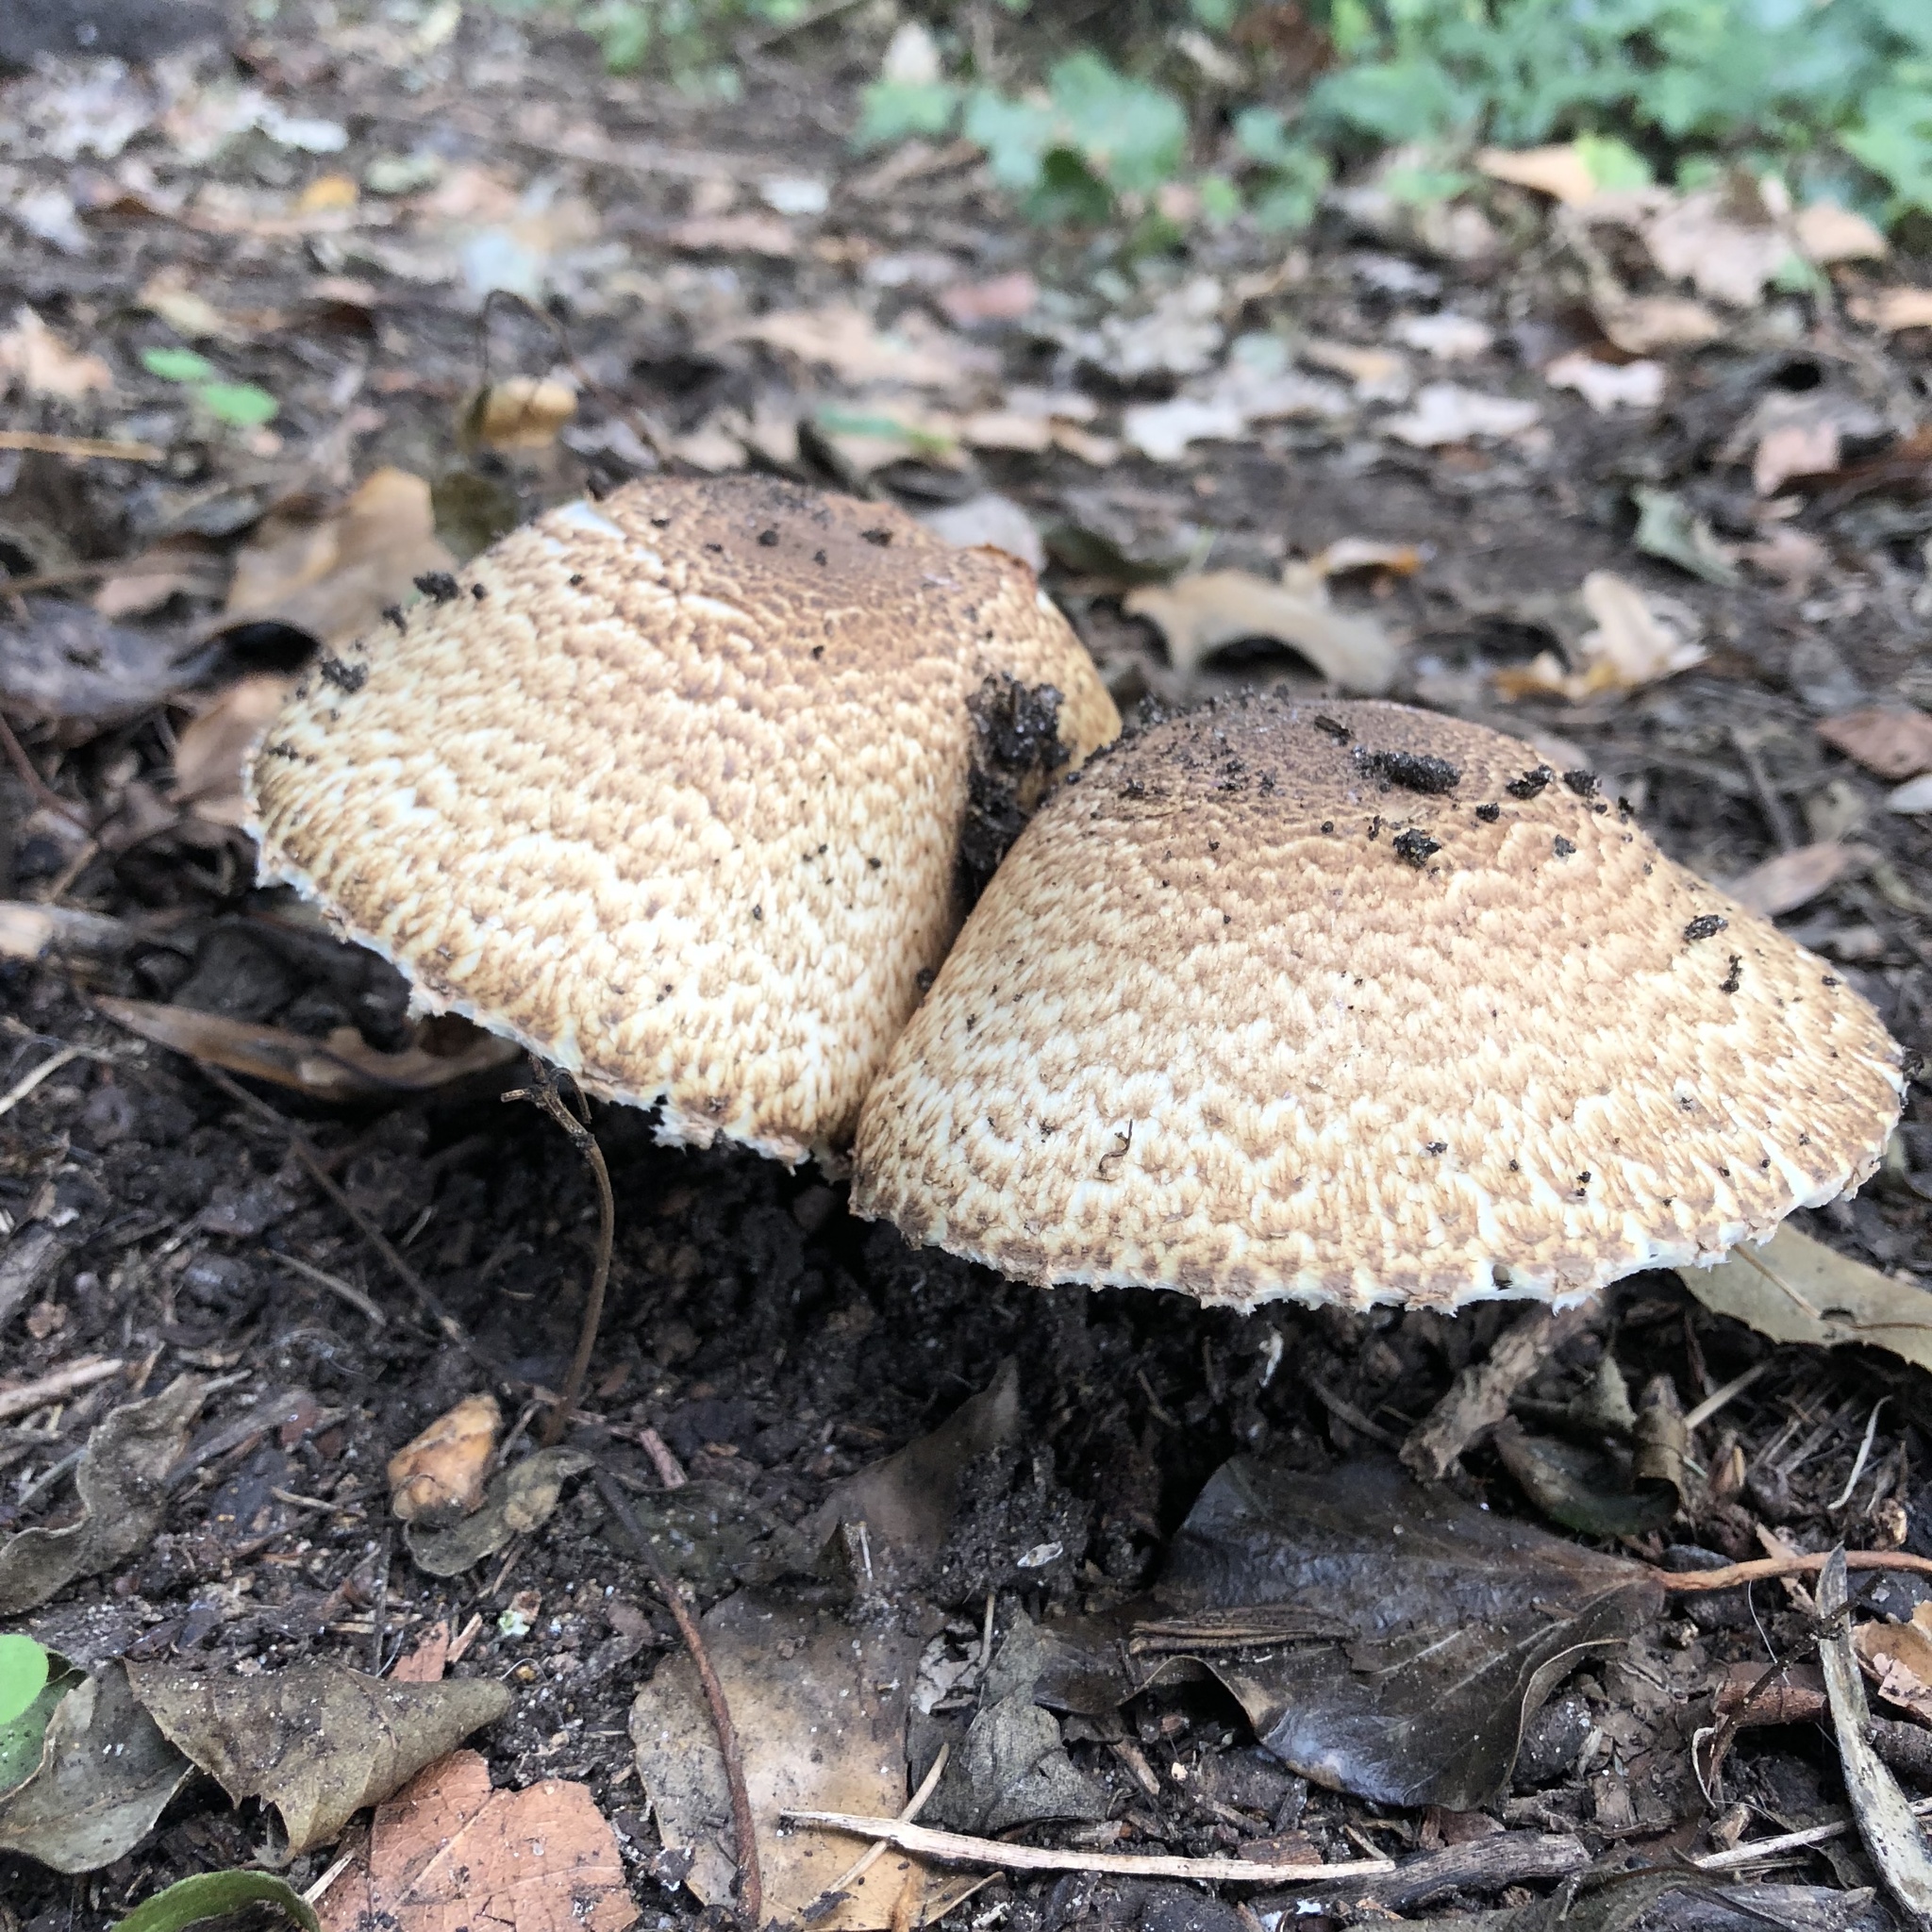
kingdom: Fungi
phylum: Basidiomycota
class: Agaricomycetes
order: Agaricales
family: Agaricaceae
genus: Agaricus
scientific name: Agaricus augustus
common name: Prince
